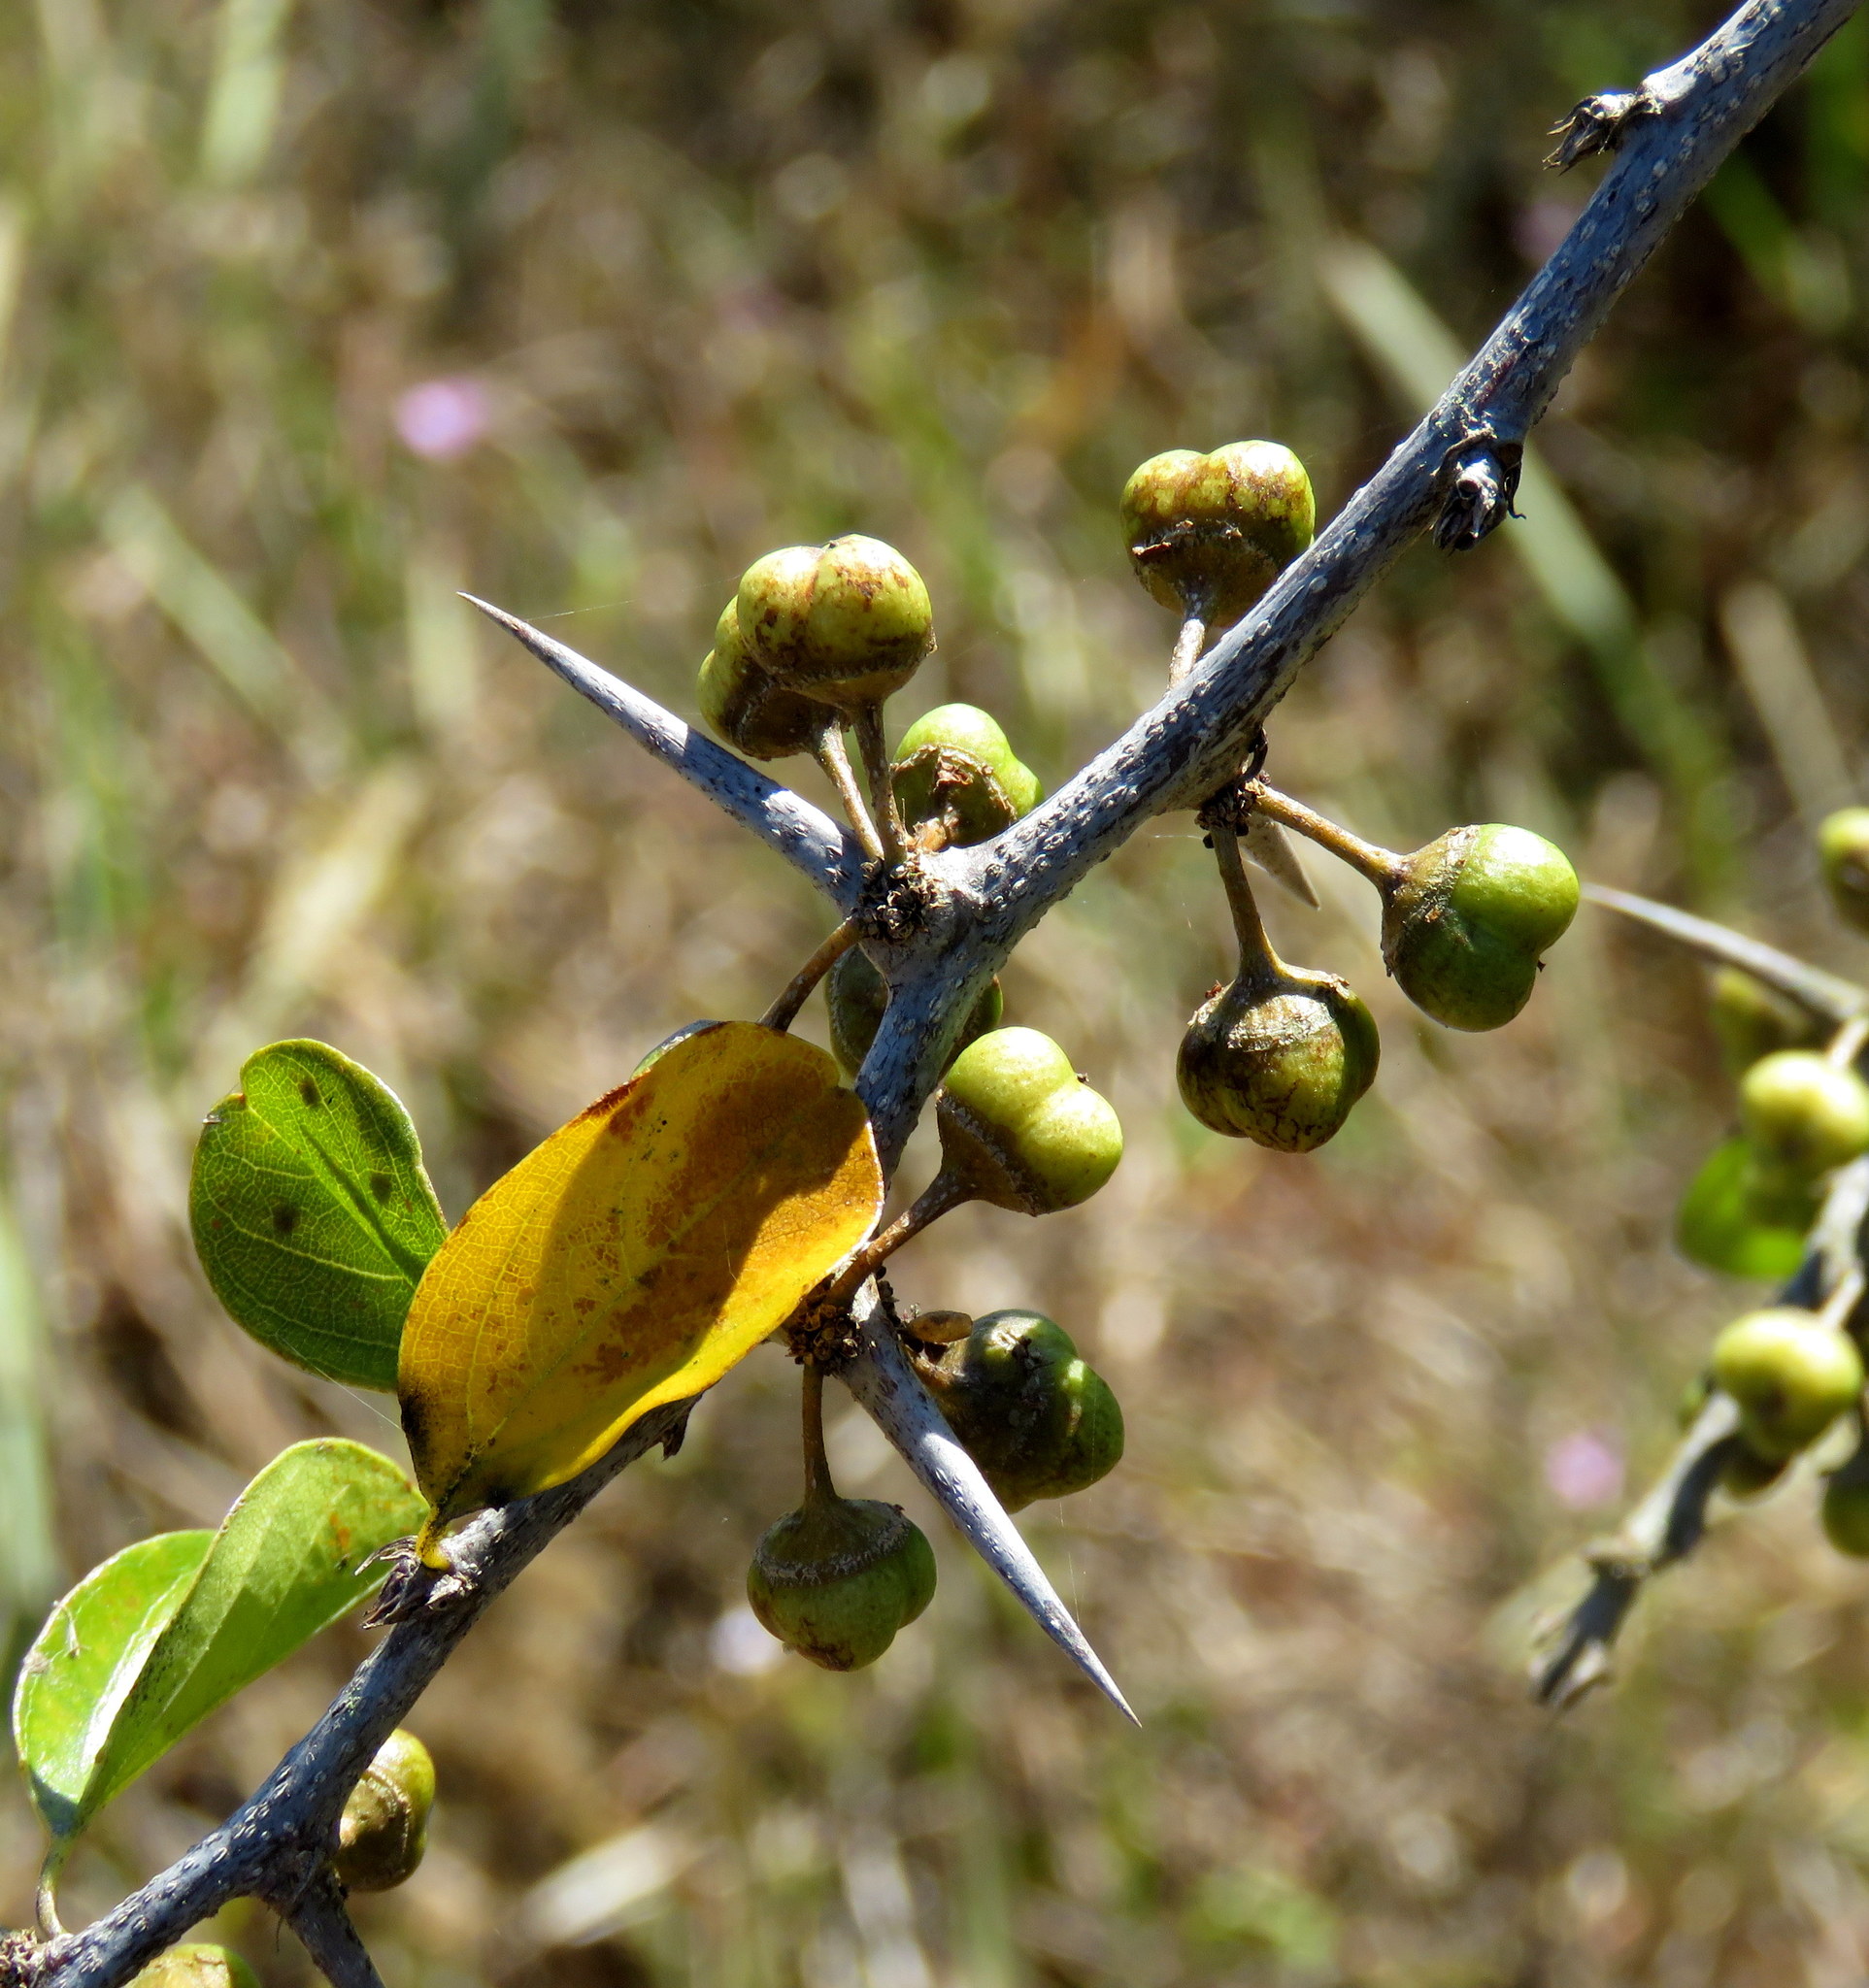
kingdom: Plantae
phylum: Tracheophyta
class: Magnoliopsida
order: Rosales
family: Rhamnaceae
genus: Colubrina
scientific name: Colubrina heteroneura
